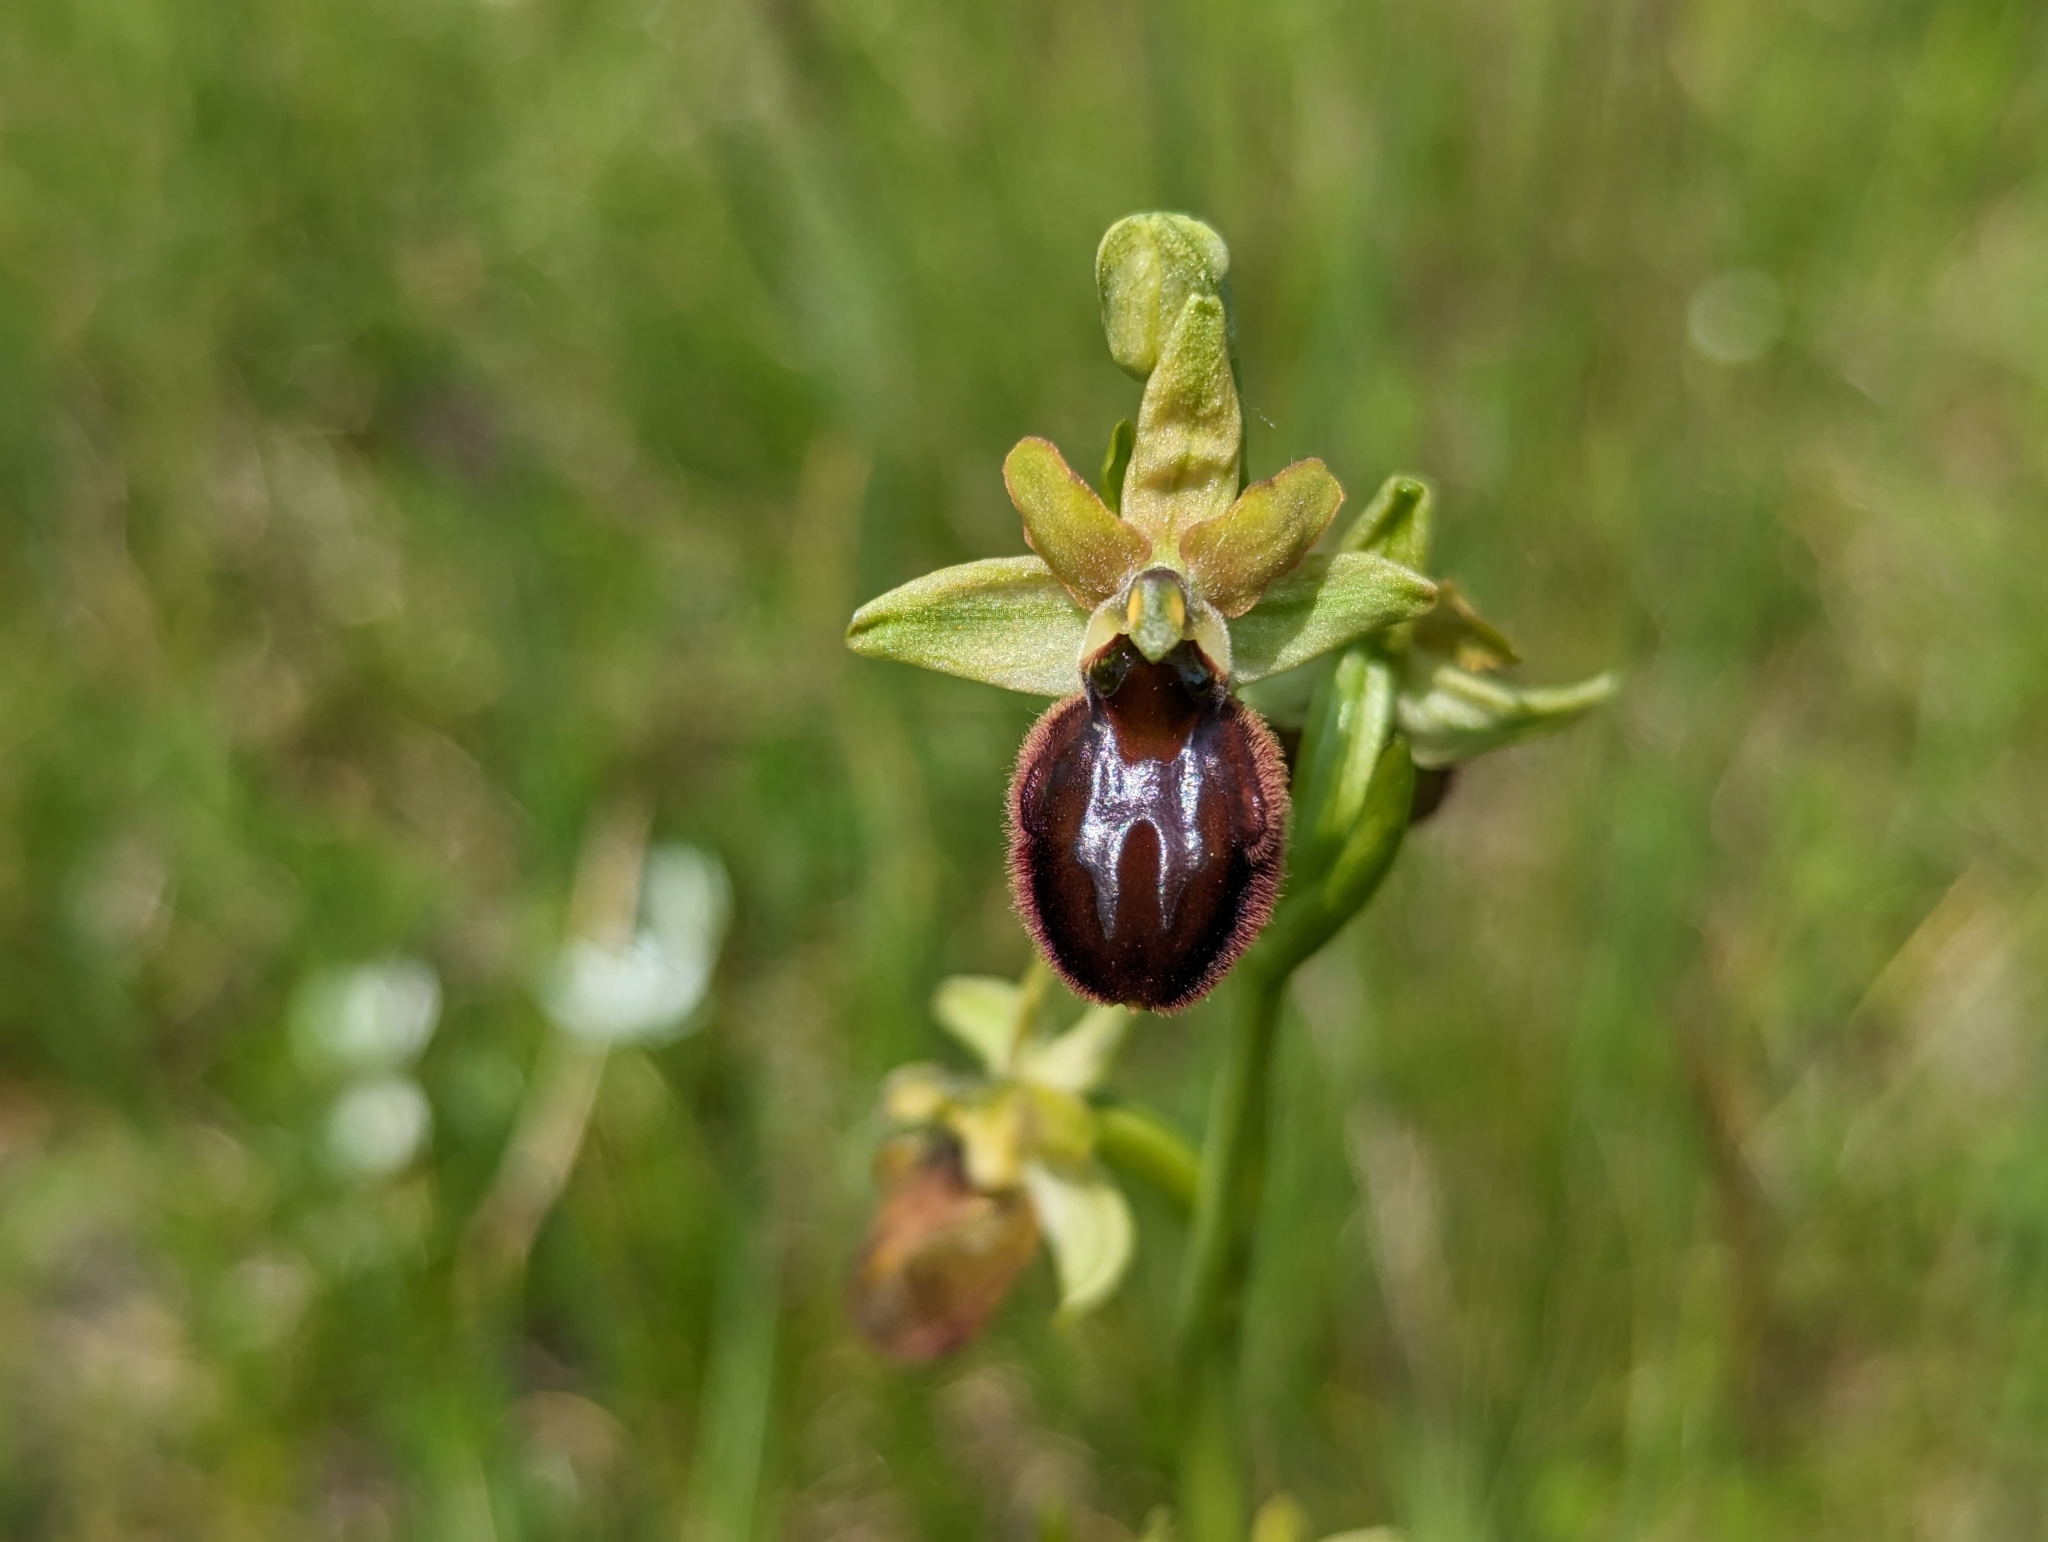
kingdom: Plantae
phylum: Tracheophyta
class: Liliopsida
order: Asparagales
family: Orchidaceae
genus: Ophrys
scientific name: Ophrys sphegodes
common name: Early spider-orchid
